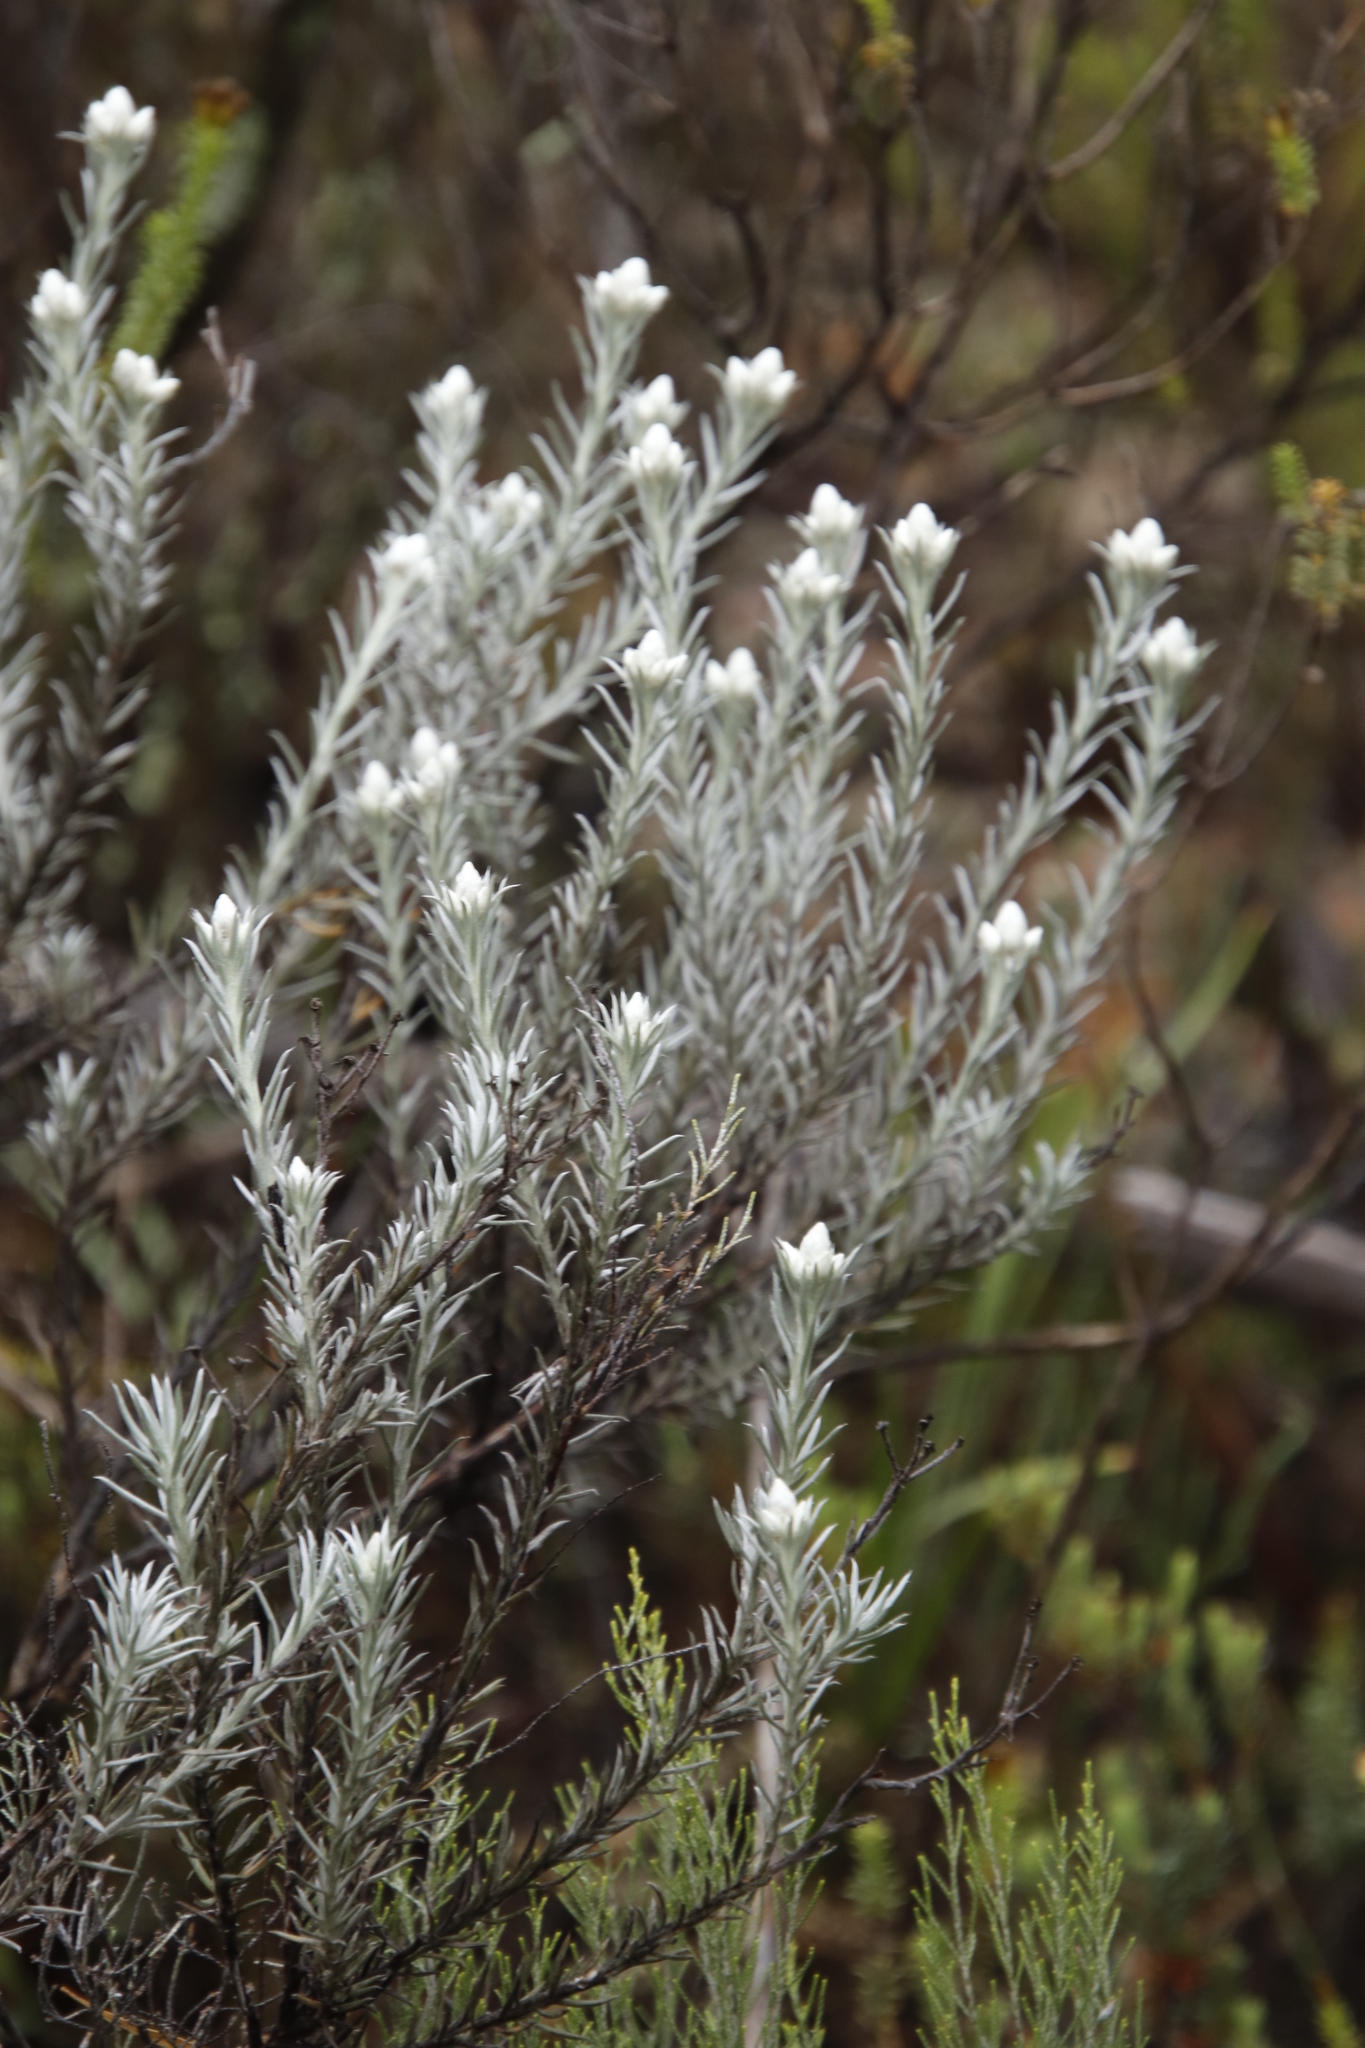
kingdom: Plantae
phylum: Tracheophyta
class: Magnoliopsida
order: Asterales
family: Asteraceae
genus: Achyranthemum
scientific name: Achyranthemum paniculatum
